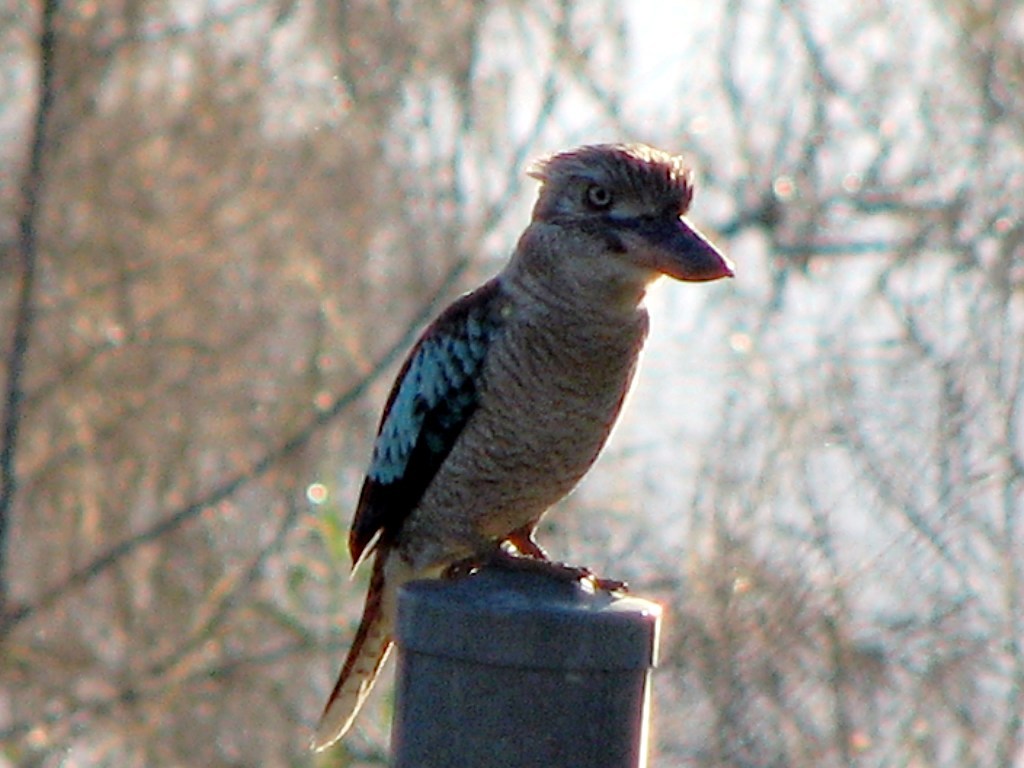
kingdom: Animalia
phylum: Chordata
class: Aves
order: Coraciiformes
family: Alcedinidae
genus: Dacelo
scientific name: Dacelo leachii
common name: Blue-winged kookaburra
